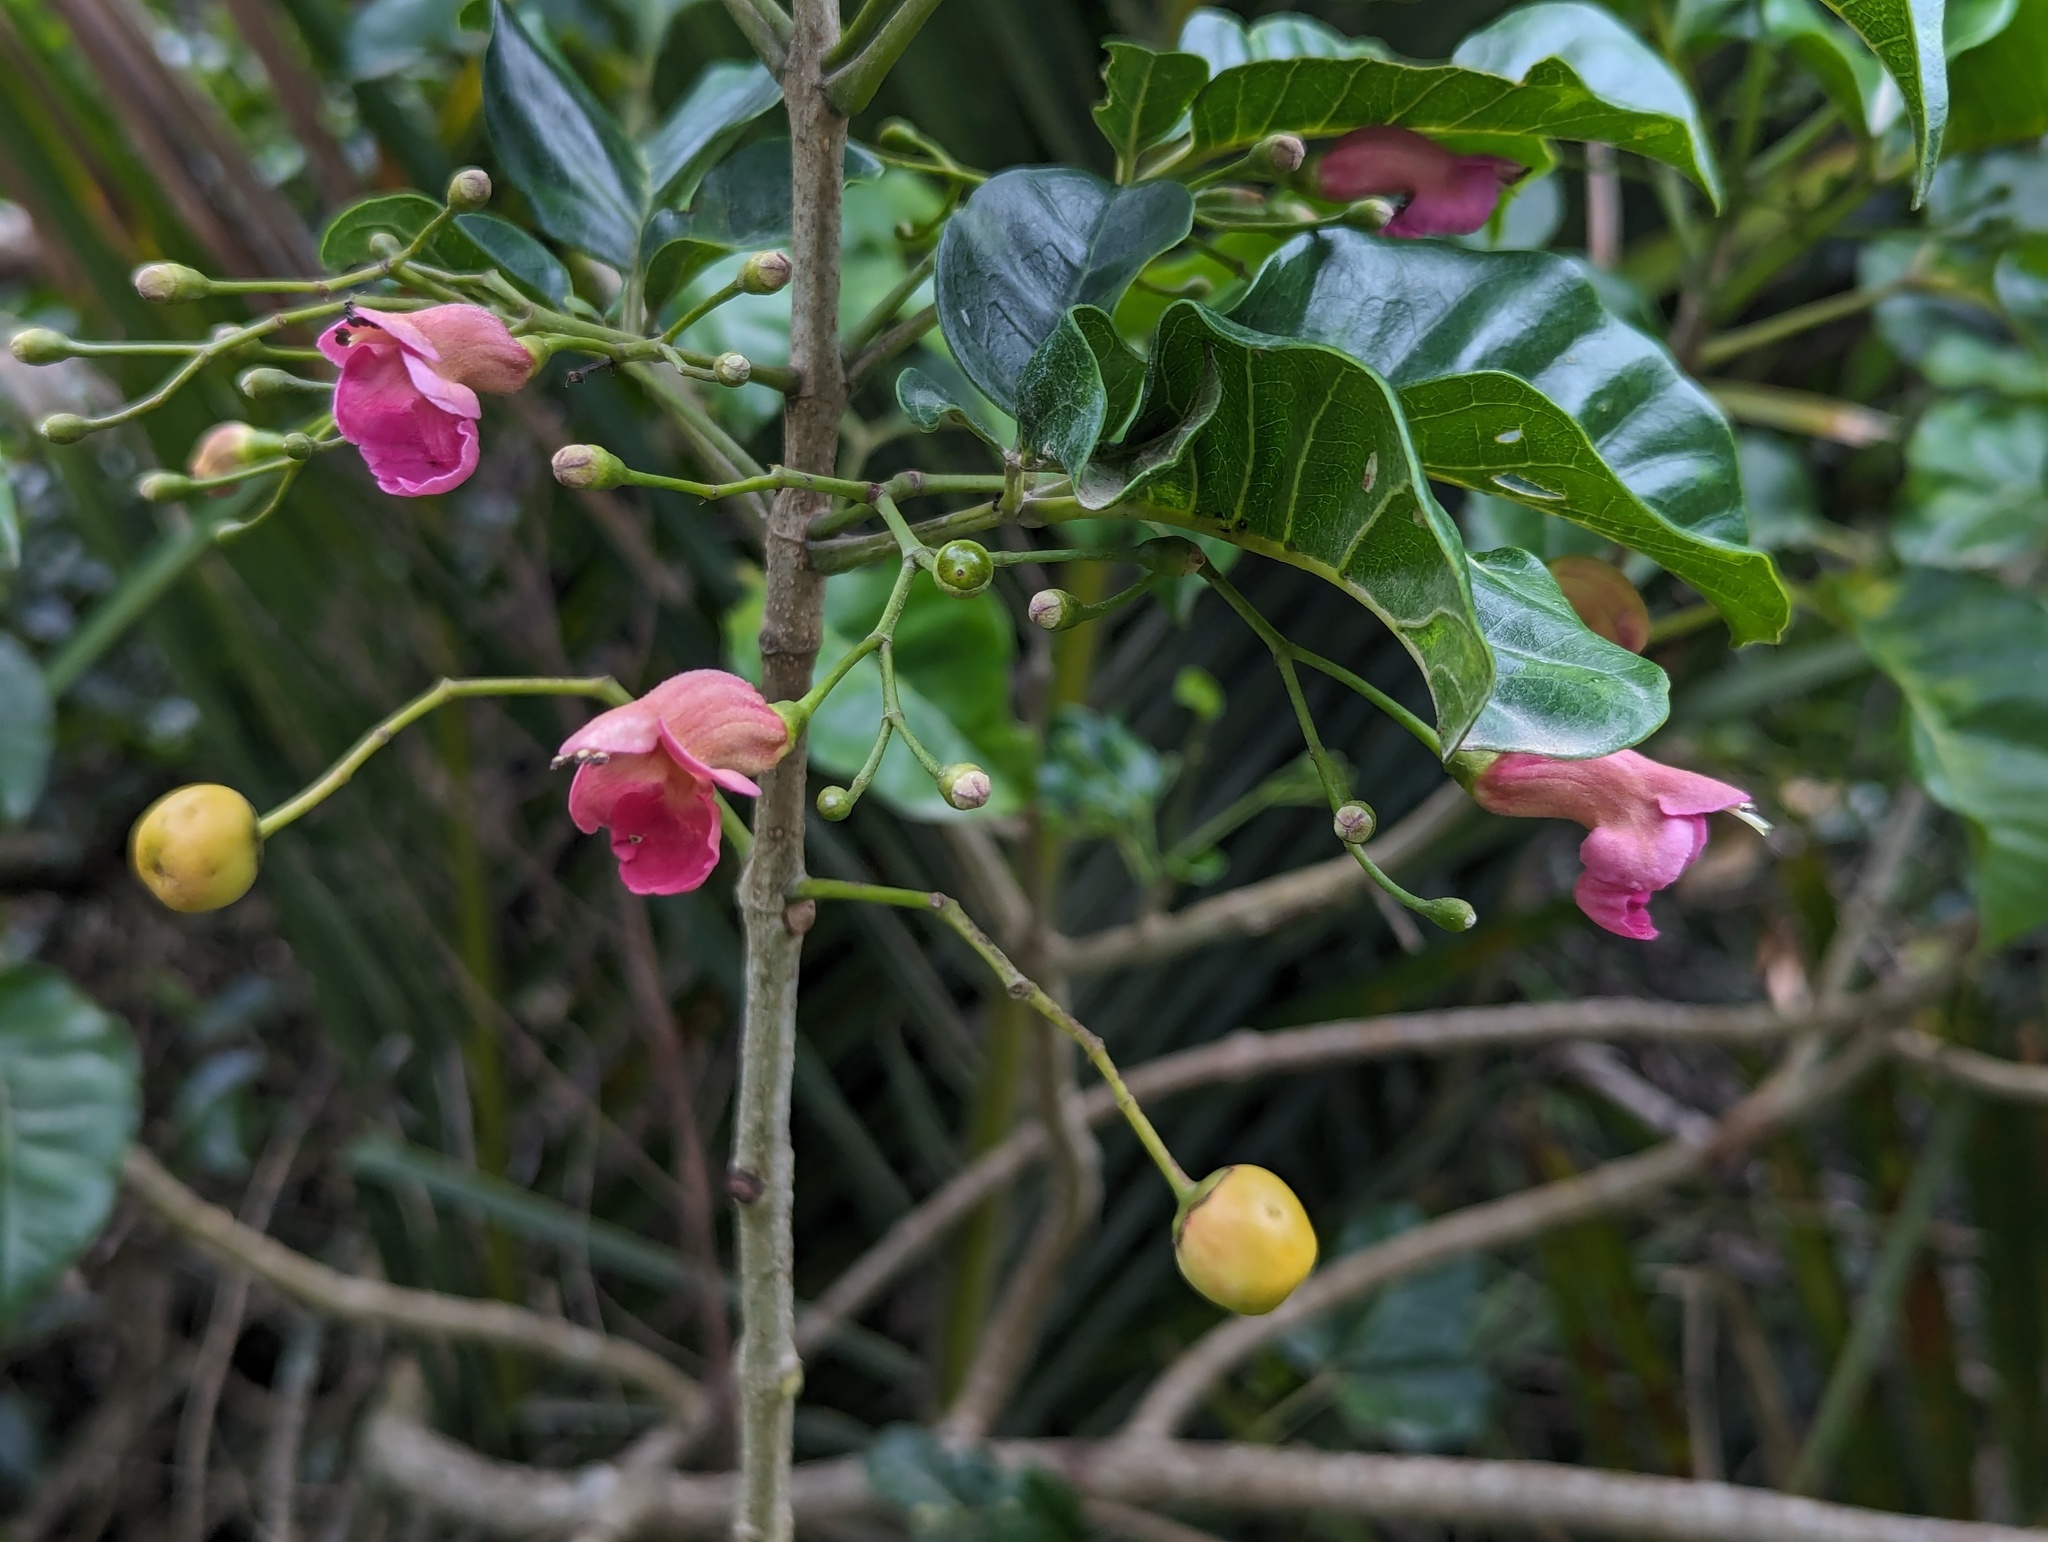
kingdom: Plantae
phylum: Tracheophyta
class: Magnoliopsida
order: Lamiales
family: Lamiaceae
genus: Vitex
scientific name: Vitex lucens
